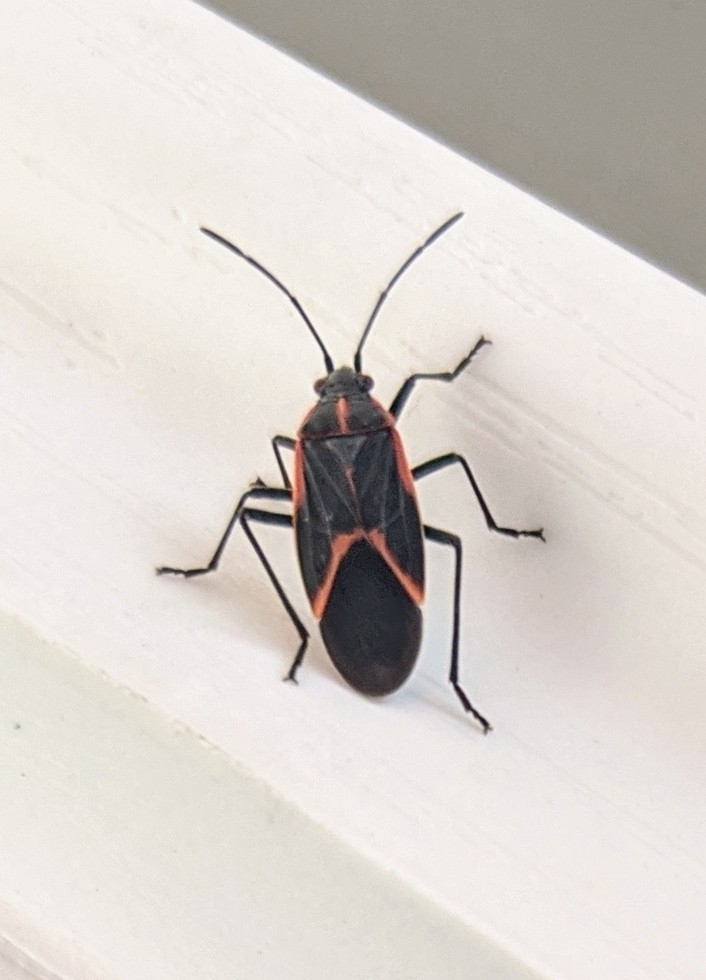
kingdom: Animalia
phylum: Arthropoda
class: Insecta
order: Hemiptera
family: Rhopalidae
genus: Boisea
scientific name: Boisea trivittata
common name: Boxelder bug
